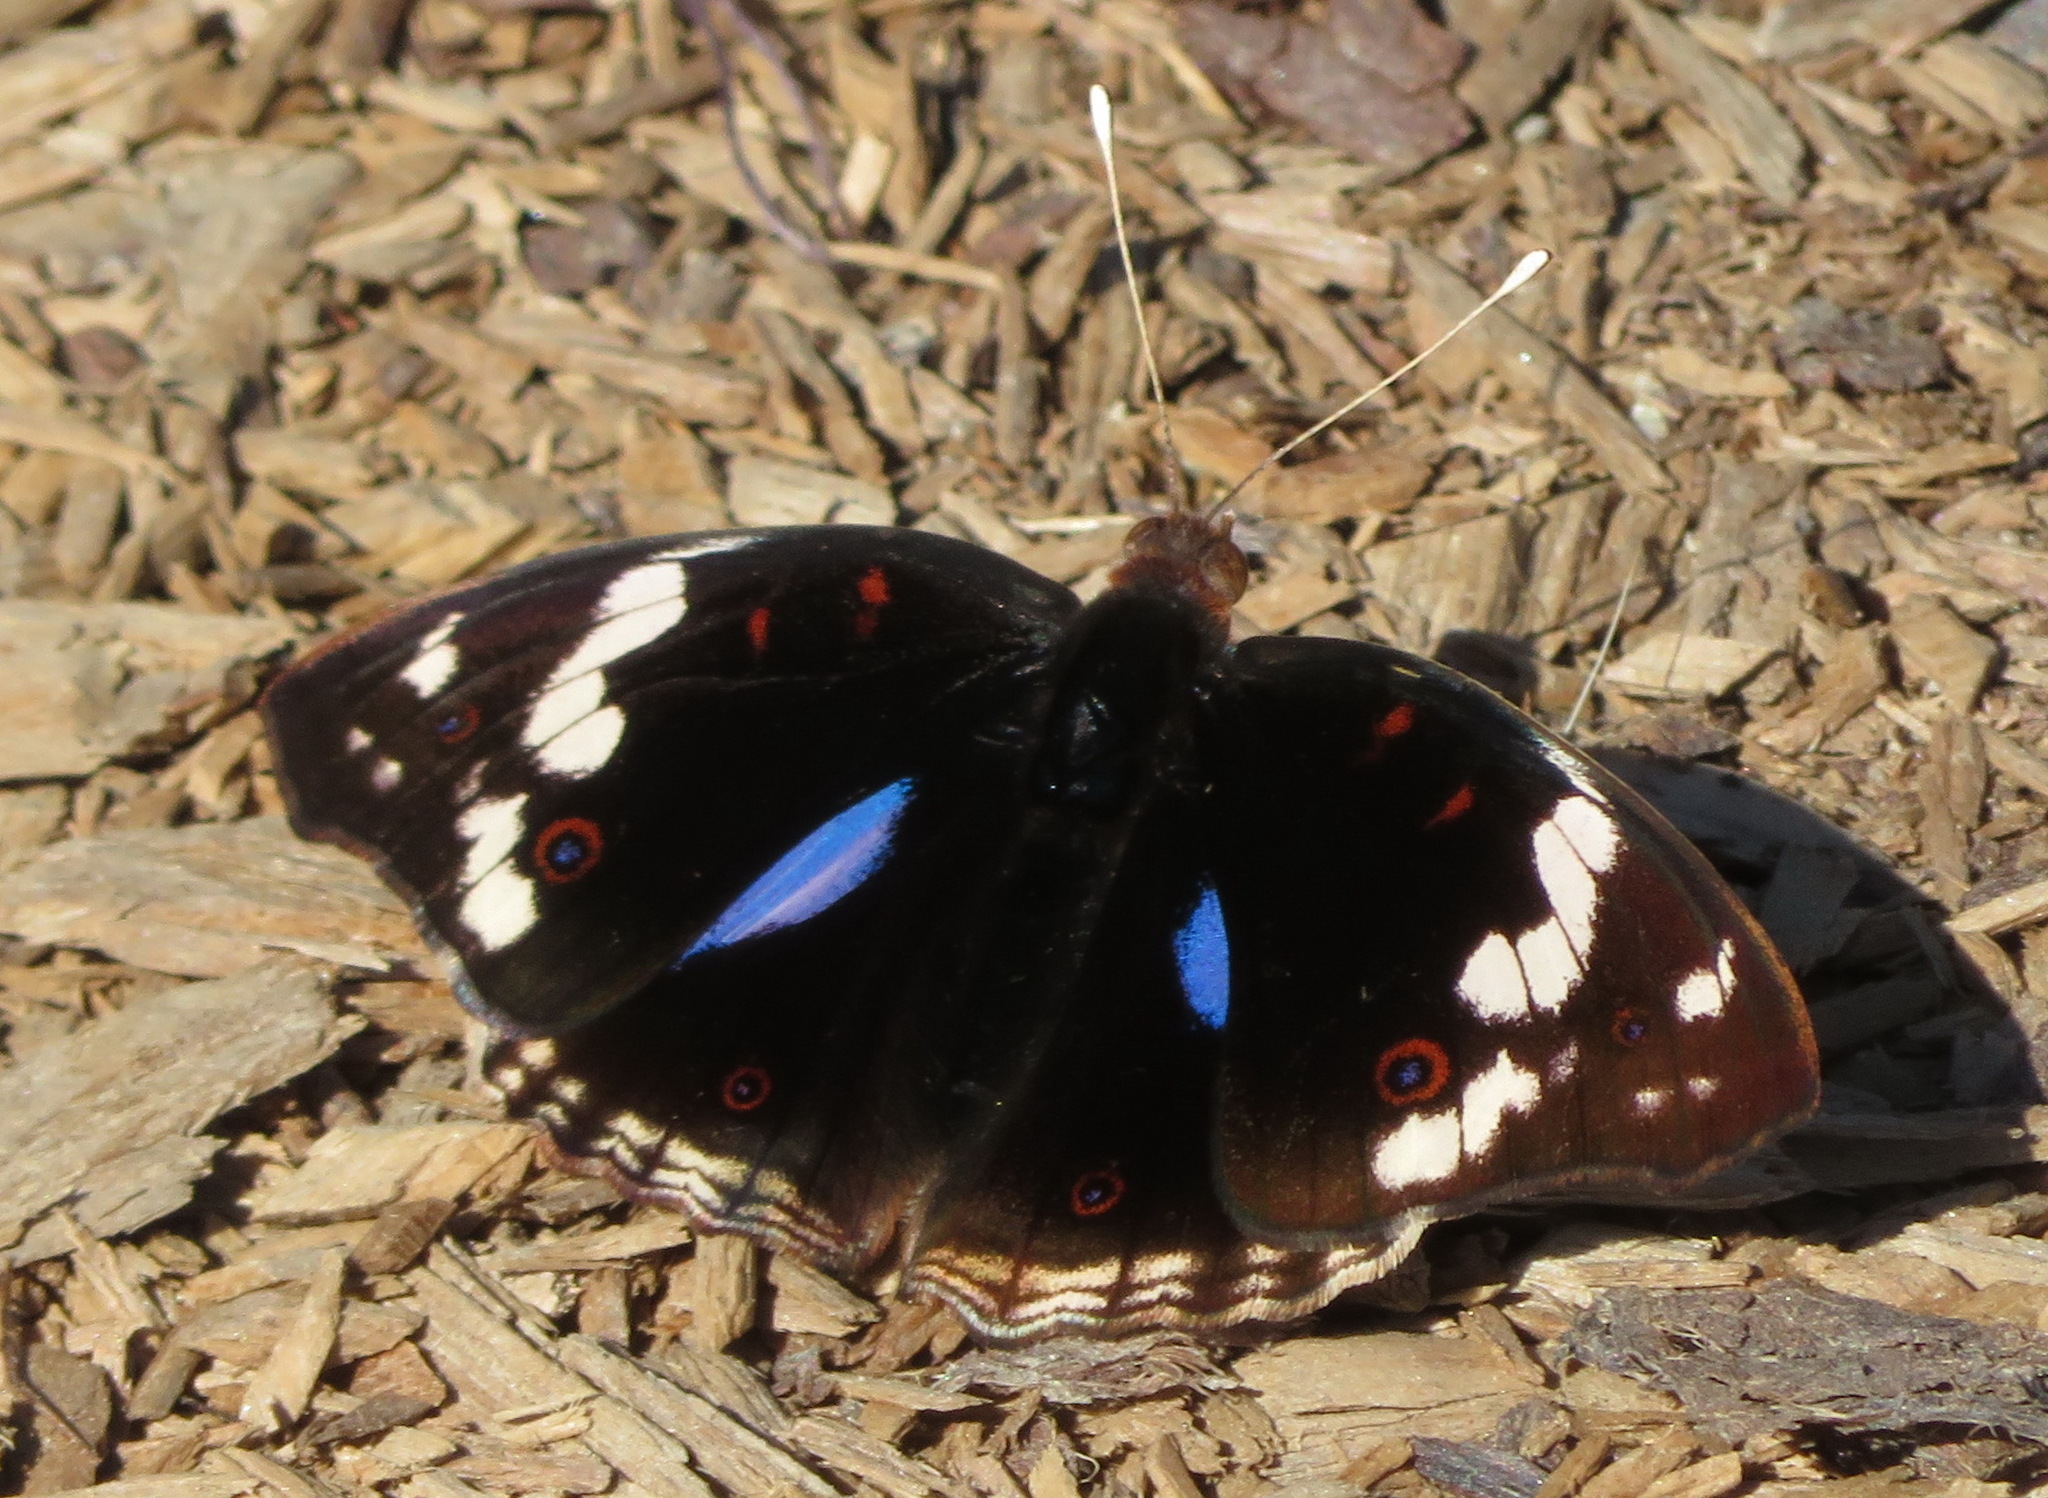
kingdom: Animalia
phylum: Arthropoda
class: Insecta
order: Lepidoptera
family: Nymphalidae
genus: Junonia
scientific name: Junonia oenone
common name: Dark blue pansy
